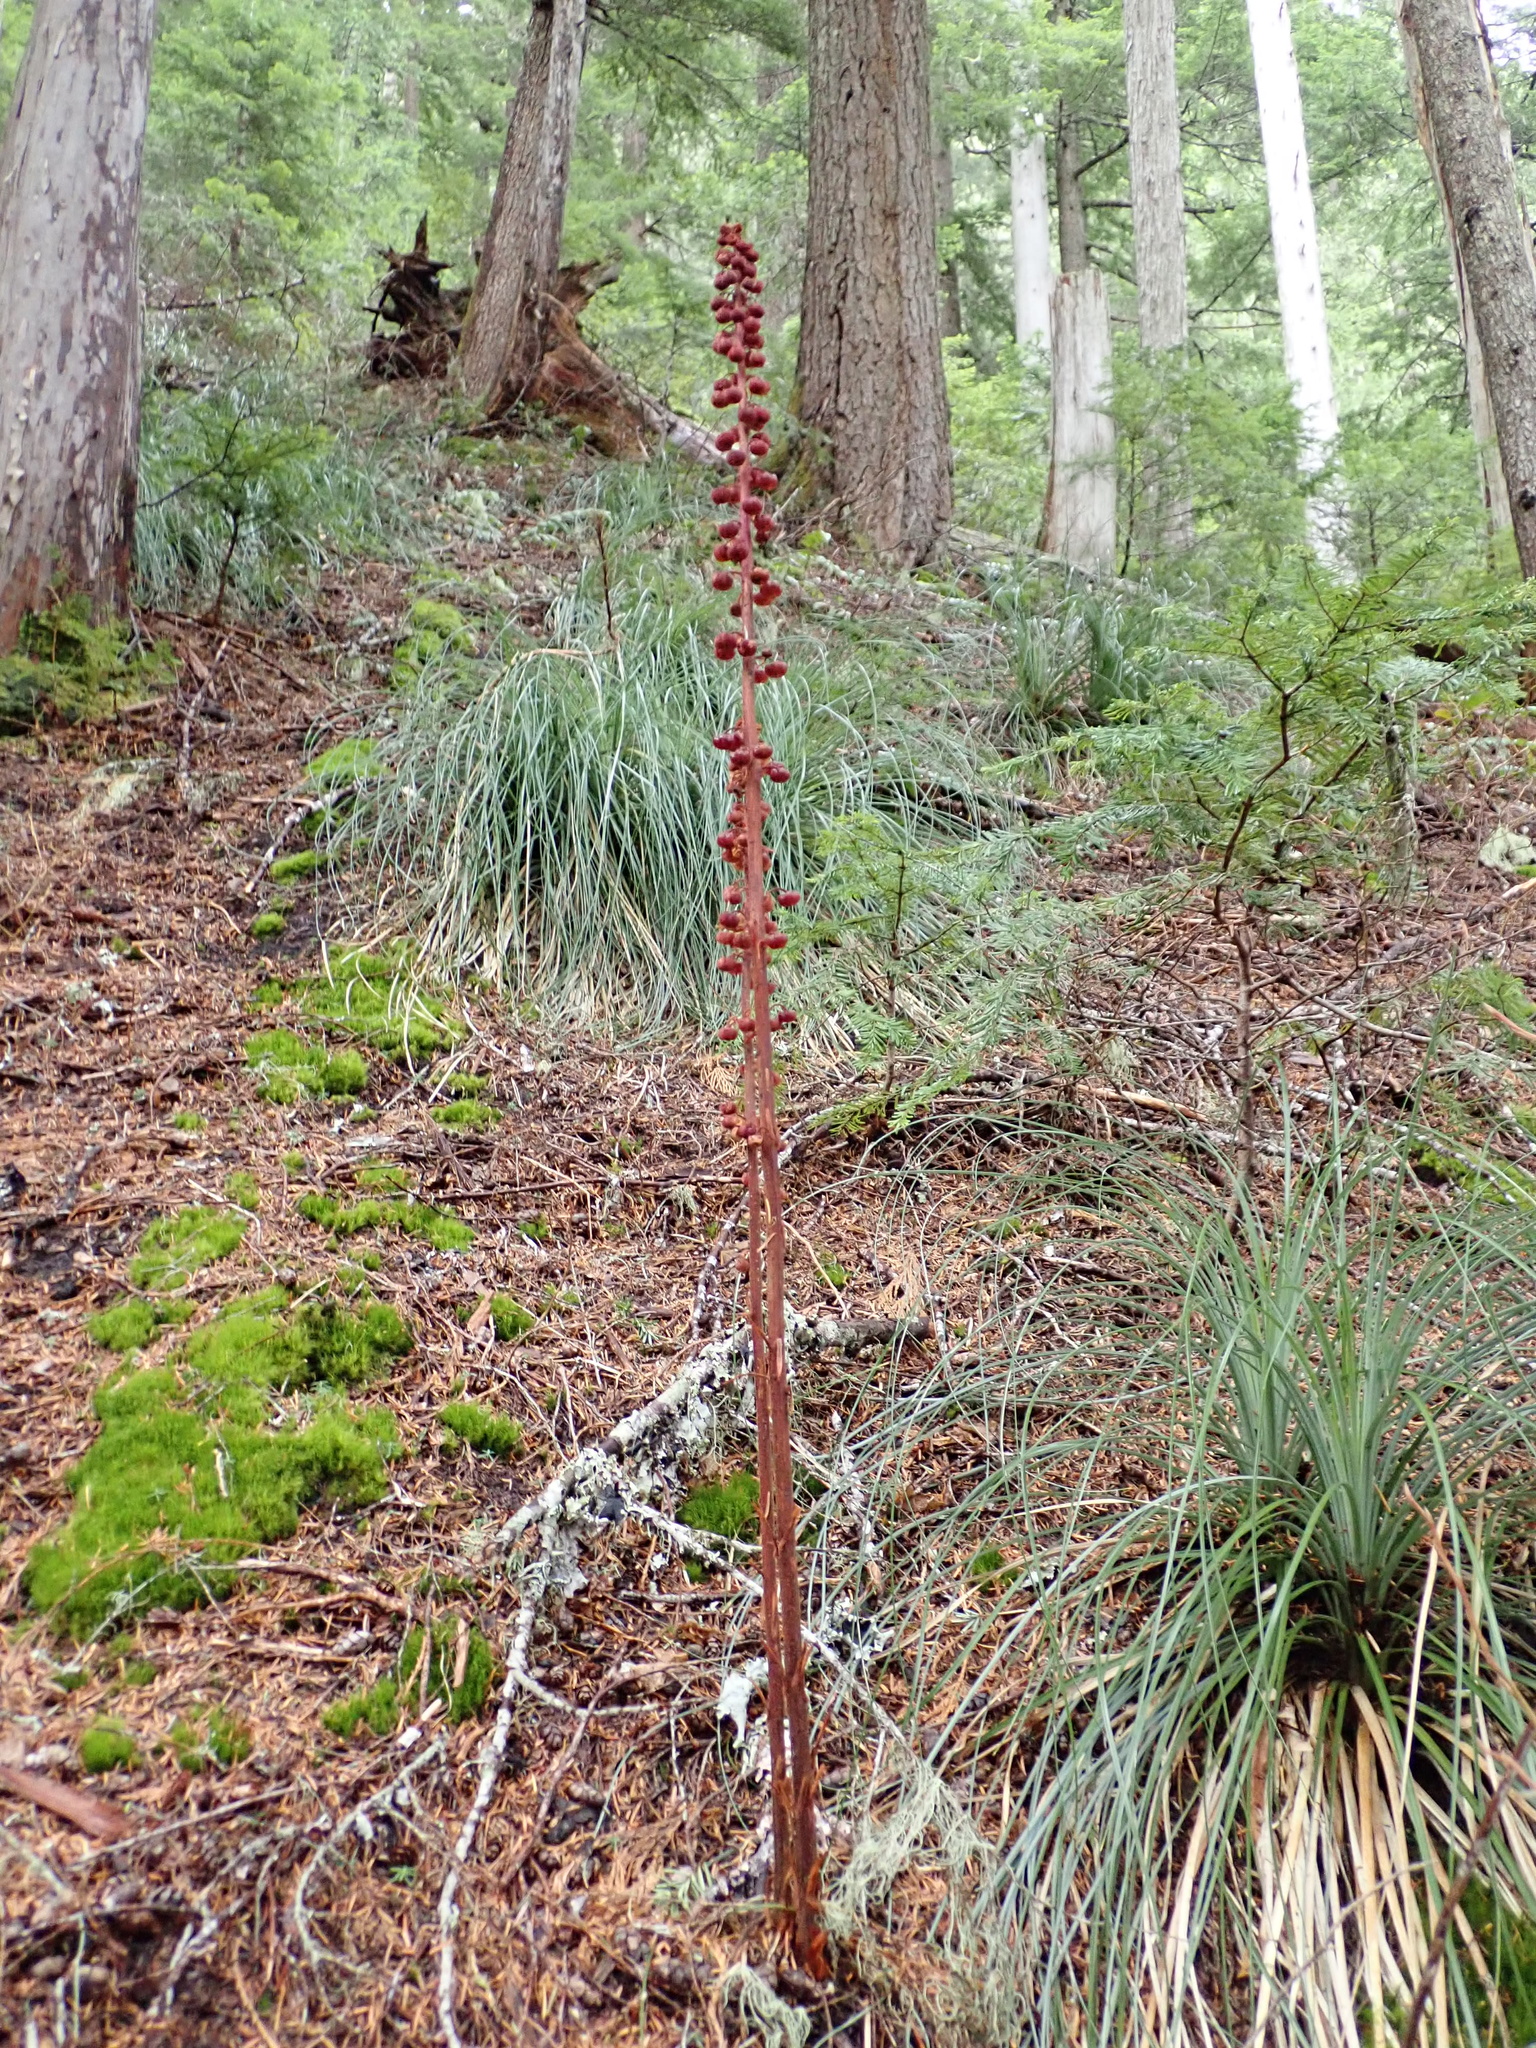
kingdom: Plantae
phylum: Tracheophyta
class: Magnoliopsida
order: Ericales
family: Ericaceae
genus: Pterospora
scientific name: Pterospora andromedea
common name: Giant bird's-nest
